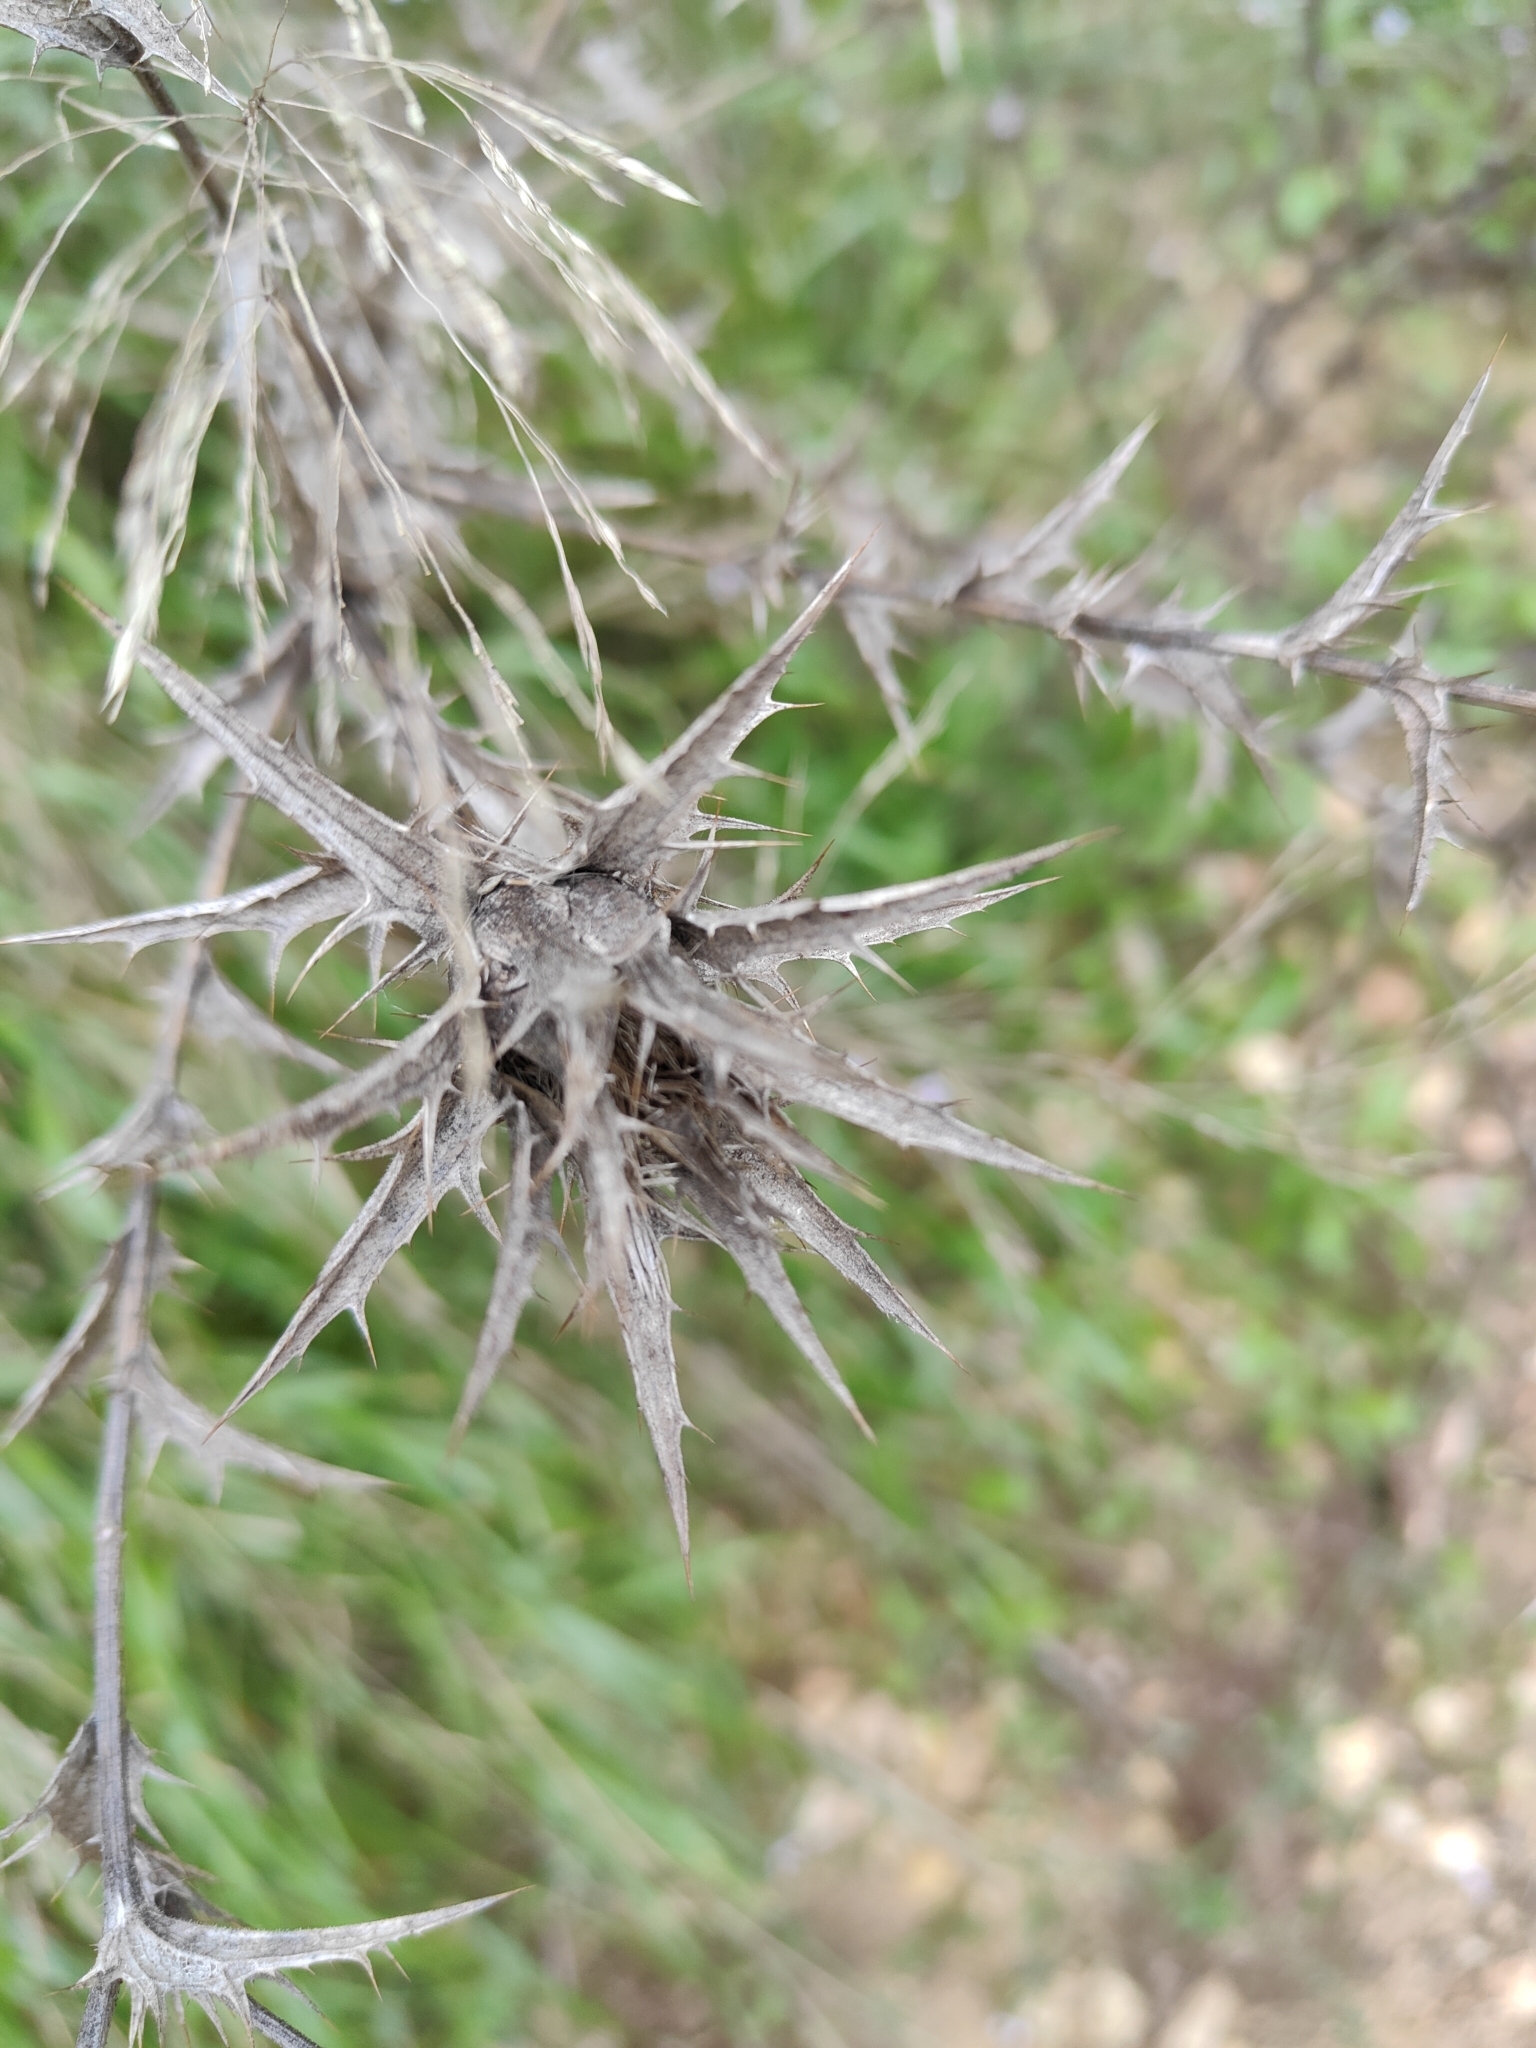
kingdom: Plantae
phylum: Tracheophyta
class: Magnoliopsida
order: Asterales
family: Asteraceae
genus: Carthamus
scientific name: Carthamus lanatus
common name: Downy safflower
